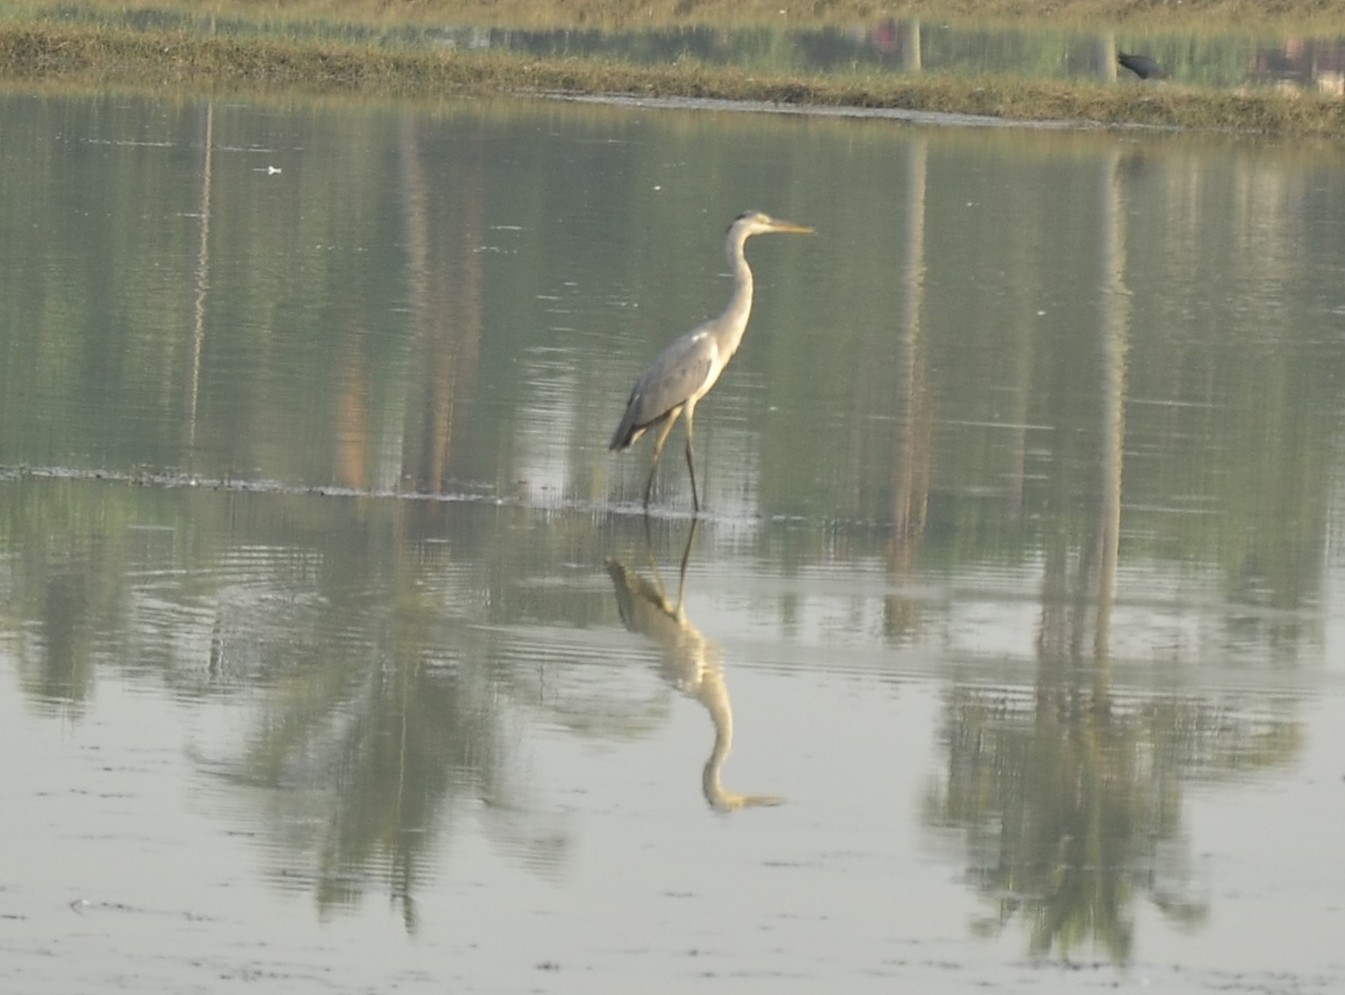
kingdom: Animalia
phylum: Chordata
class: Aves
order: Pelecaniformes
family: Ardeidae
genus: Ardea
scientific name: Ardea cinerea
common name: Grey heron
